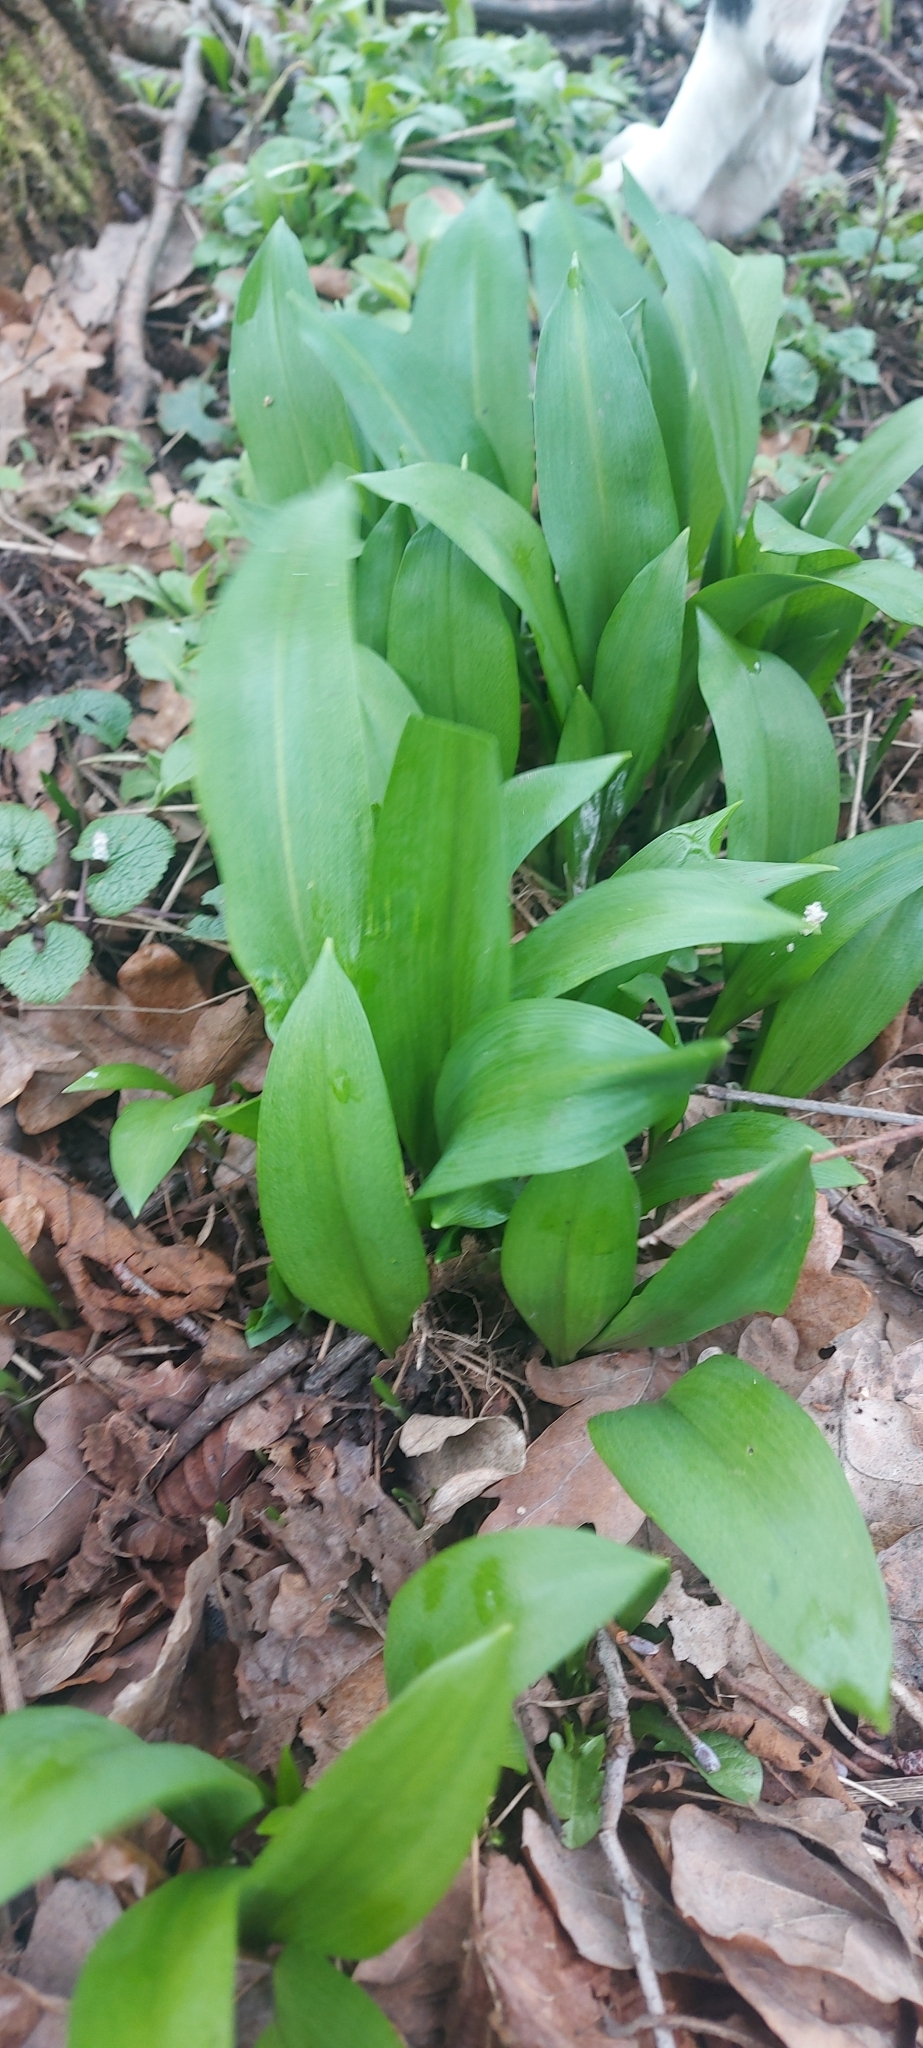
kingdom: Plantae
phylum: Tracheophyta
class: Liliopsida
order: Asparagales
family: Amaryllidaceae
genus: Allium
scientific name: Allium ursinum
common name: Ramsons
